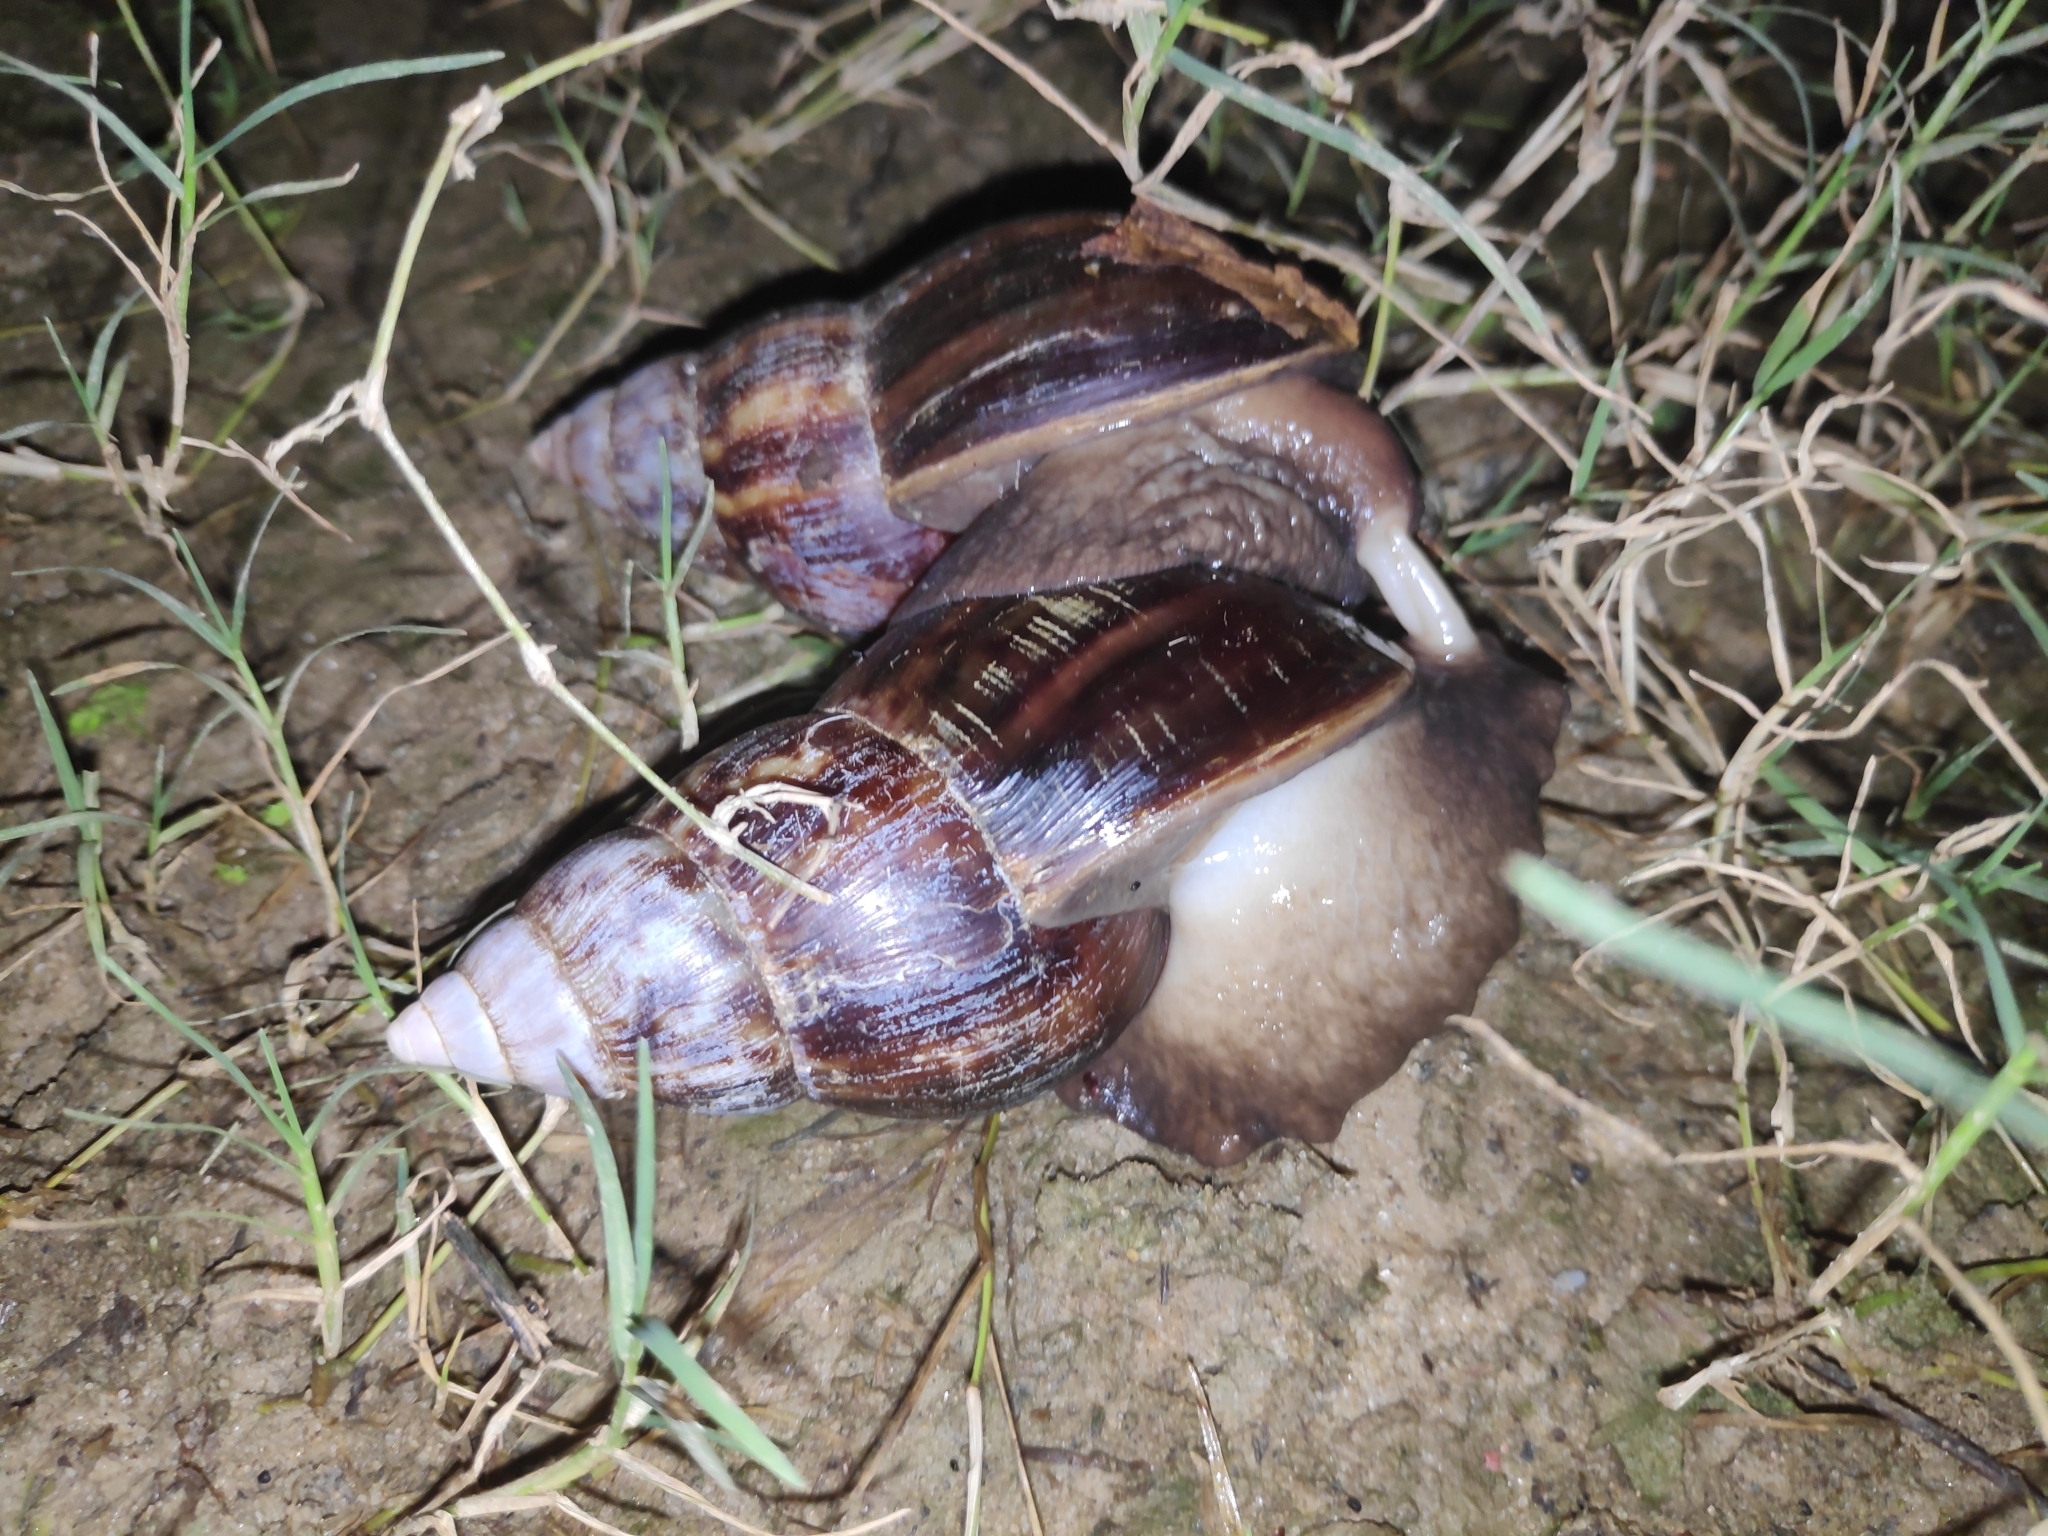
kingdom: Animalia
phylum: Mollusca
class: Gastropoda
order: Stylommatophora
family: Achatinidae
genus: Lissachatina
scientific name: Lissachatina fulica
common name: Giant african snail
